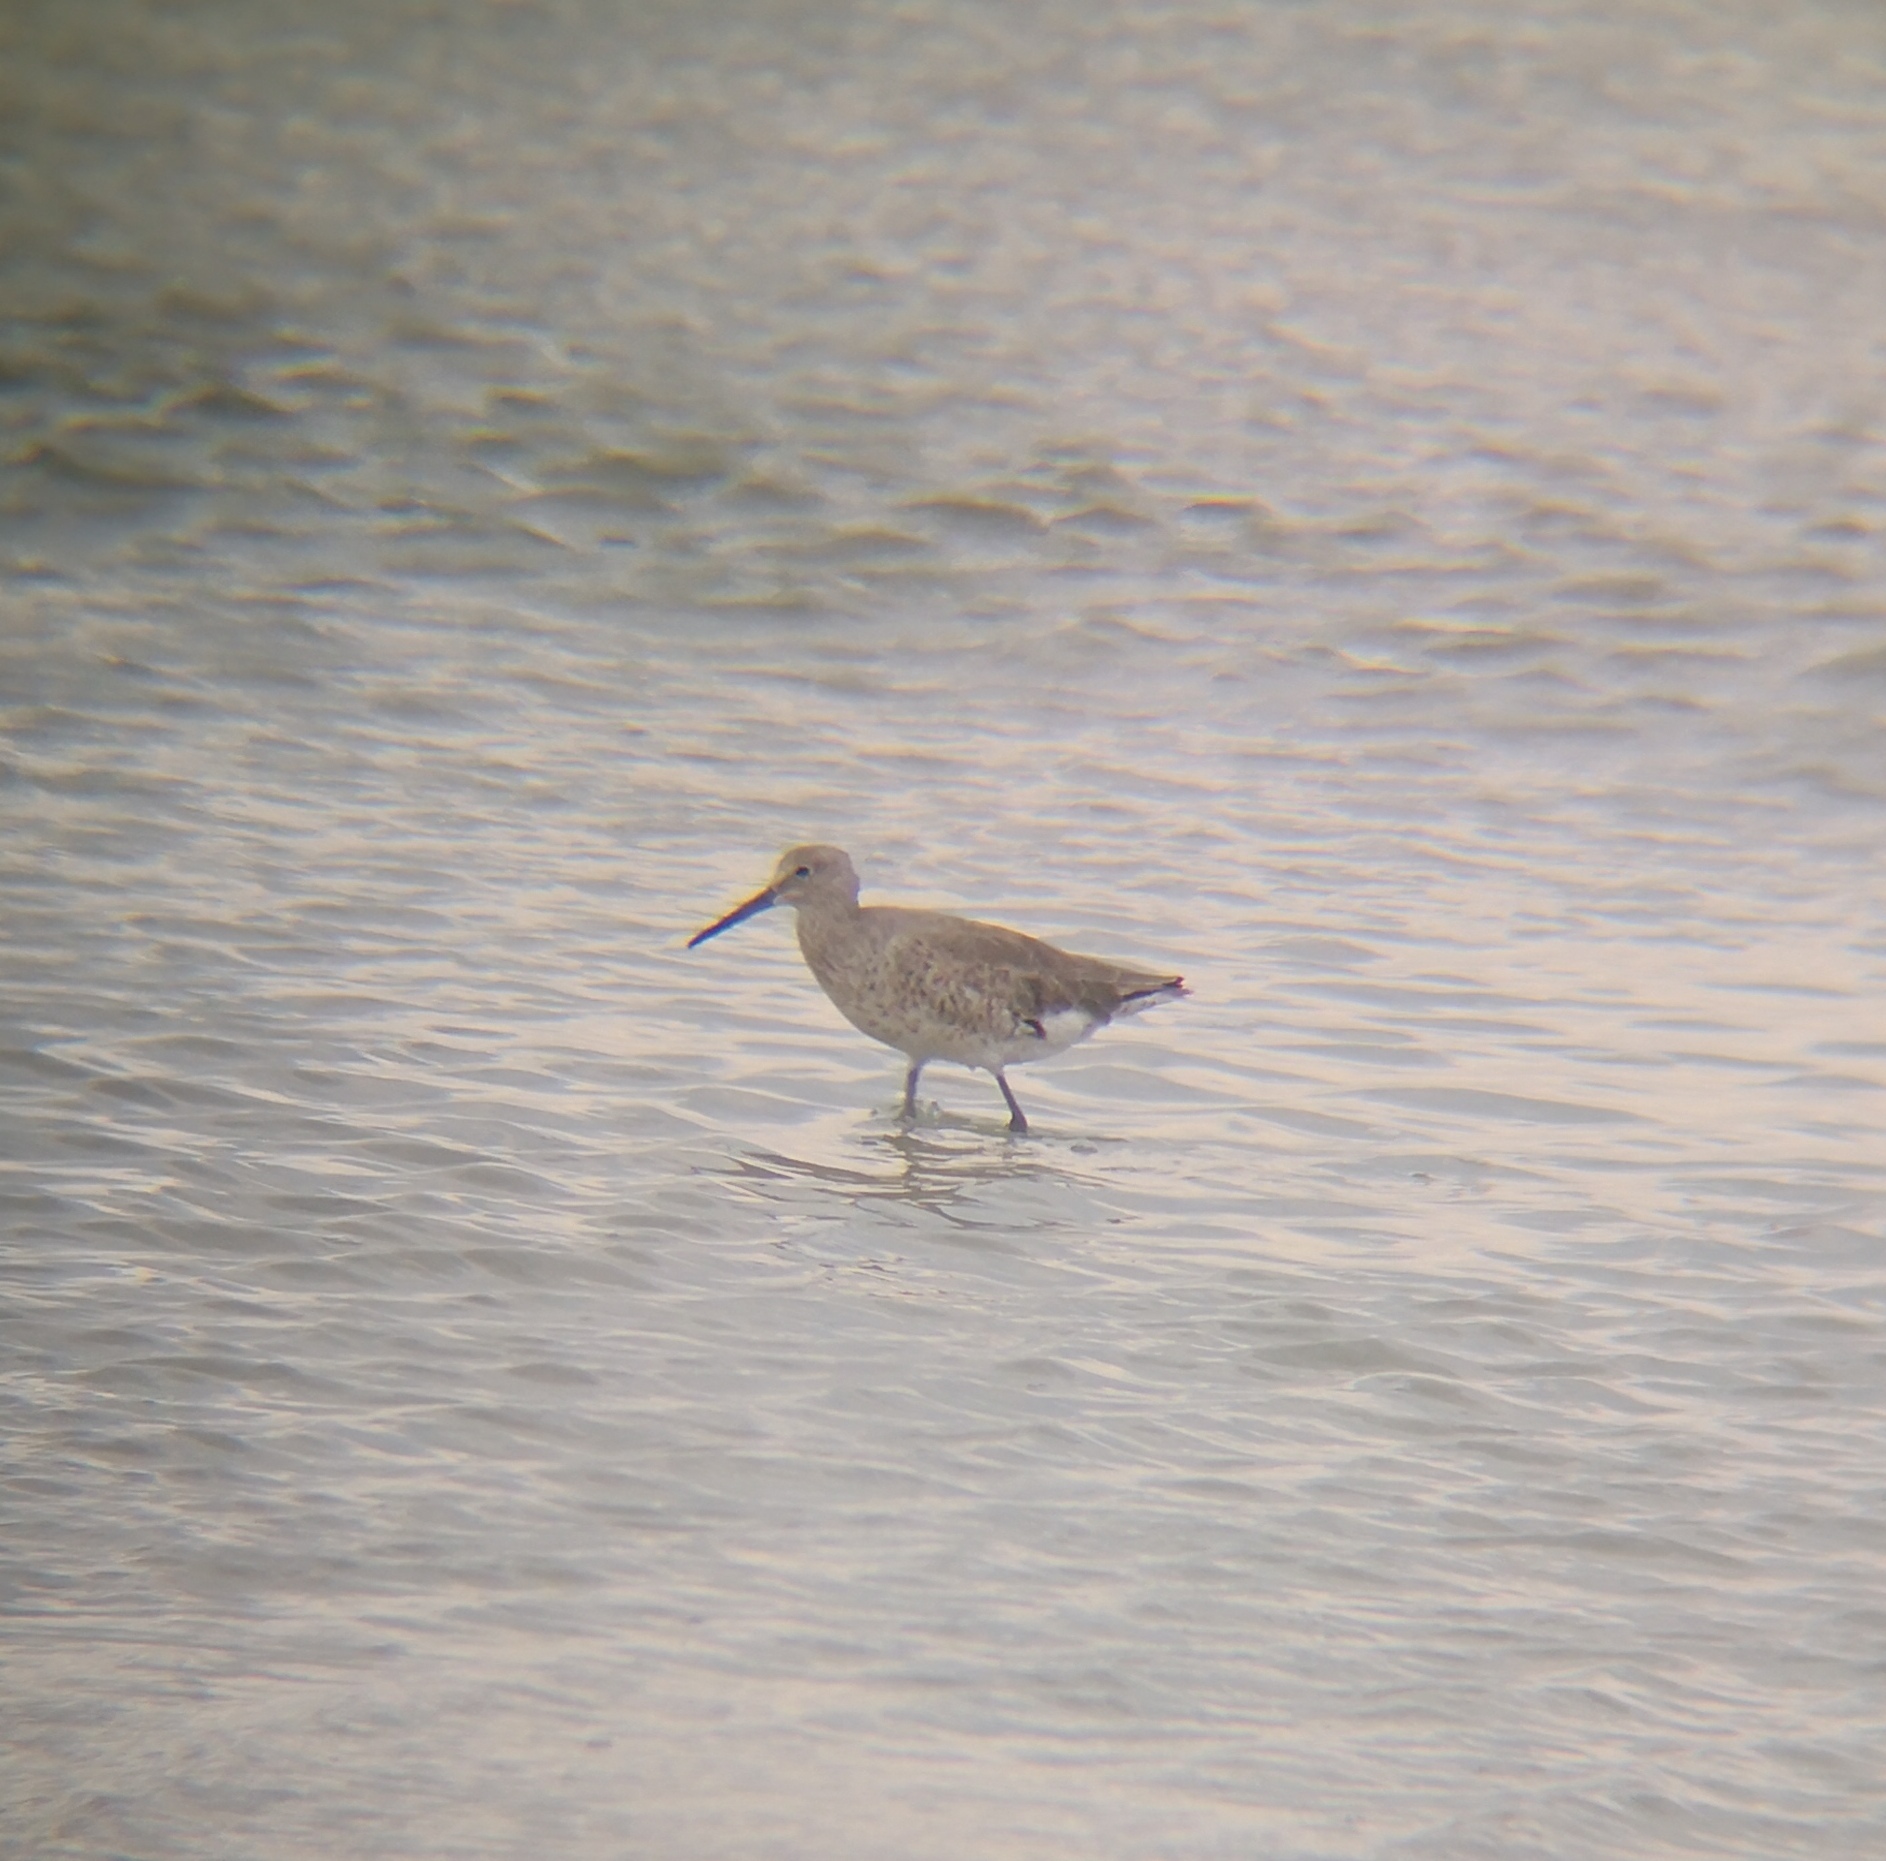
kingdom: Animalia
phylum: Chordata
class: Aves
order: Charadriiformes
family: Scolopacidae
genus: Tringa
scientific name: Tringa semipalmata
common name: Willet
